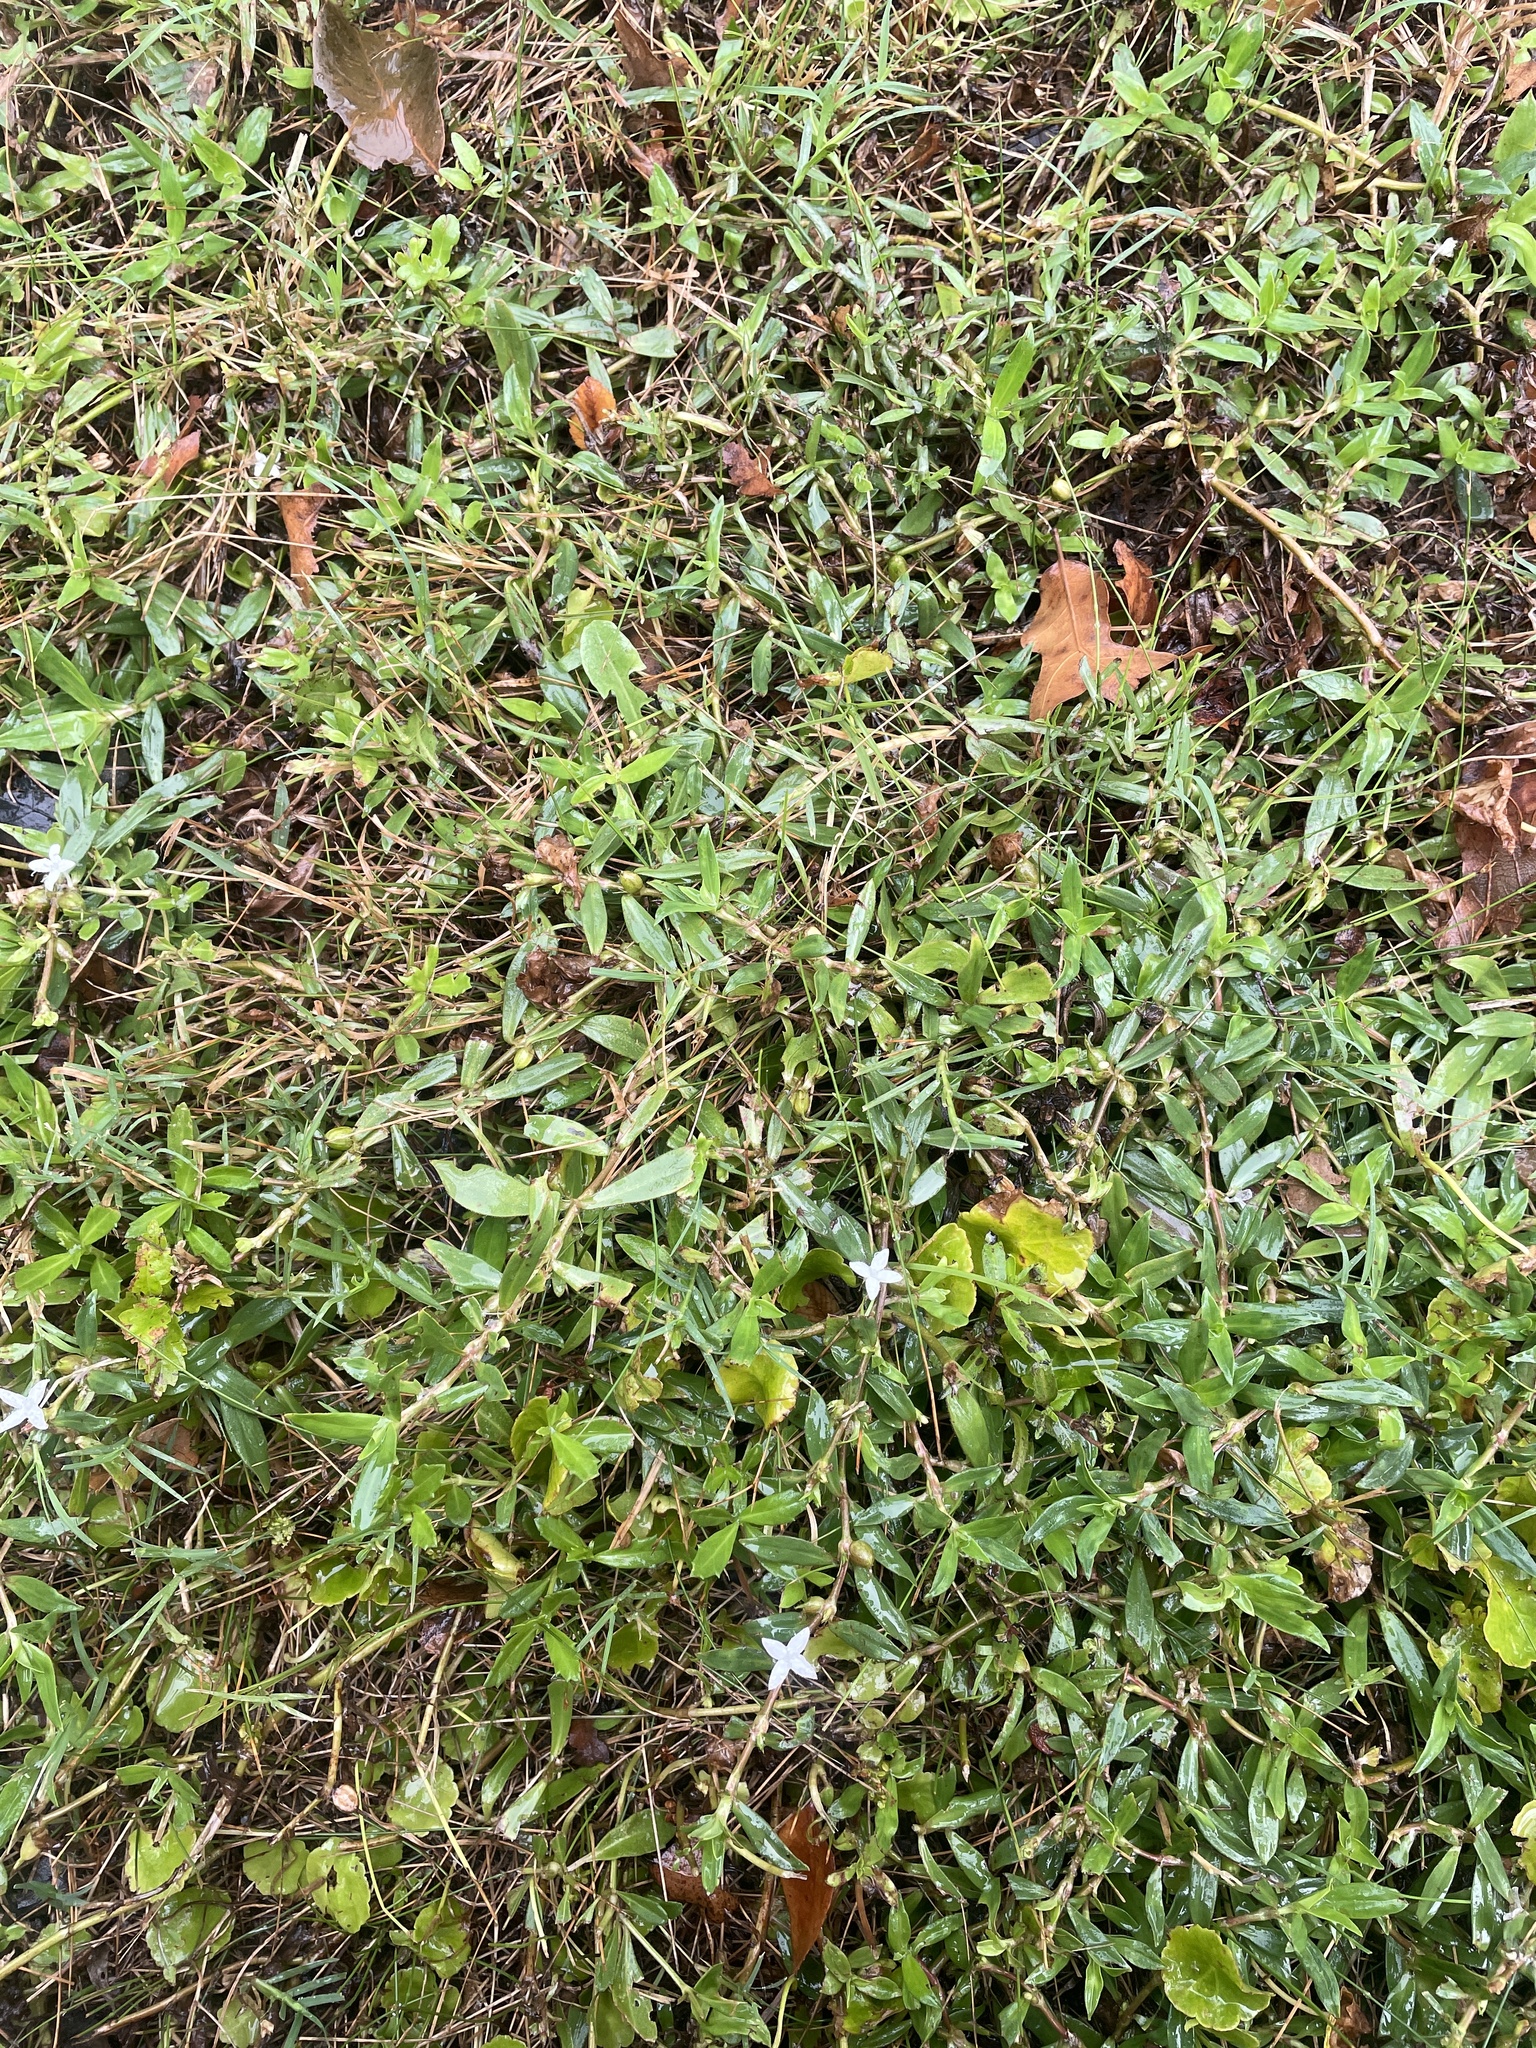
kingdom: Plantae
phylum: Tracheophyta
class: Magnoliopsida
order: Gentianales
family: Rubiaceae
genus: Diodia
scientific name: Diodia virginiana
